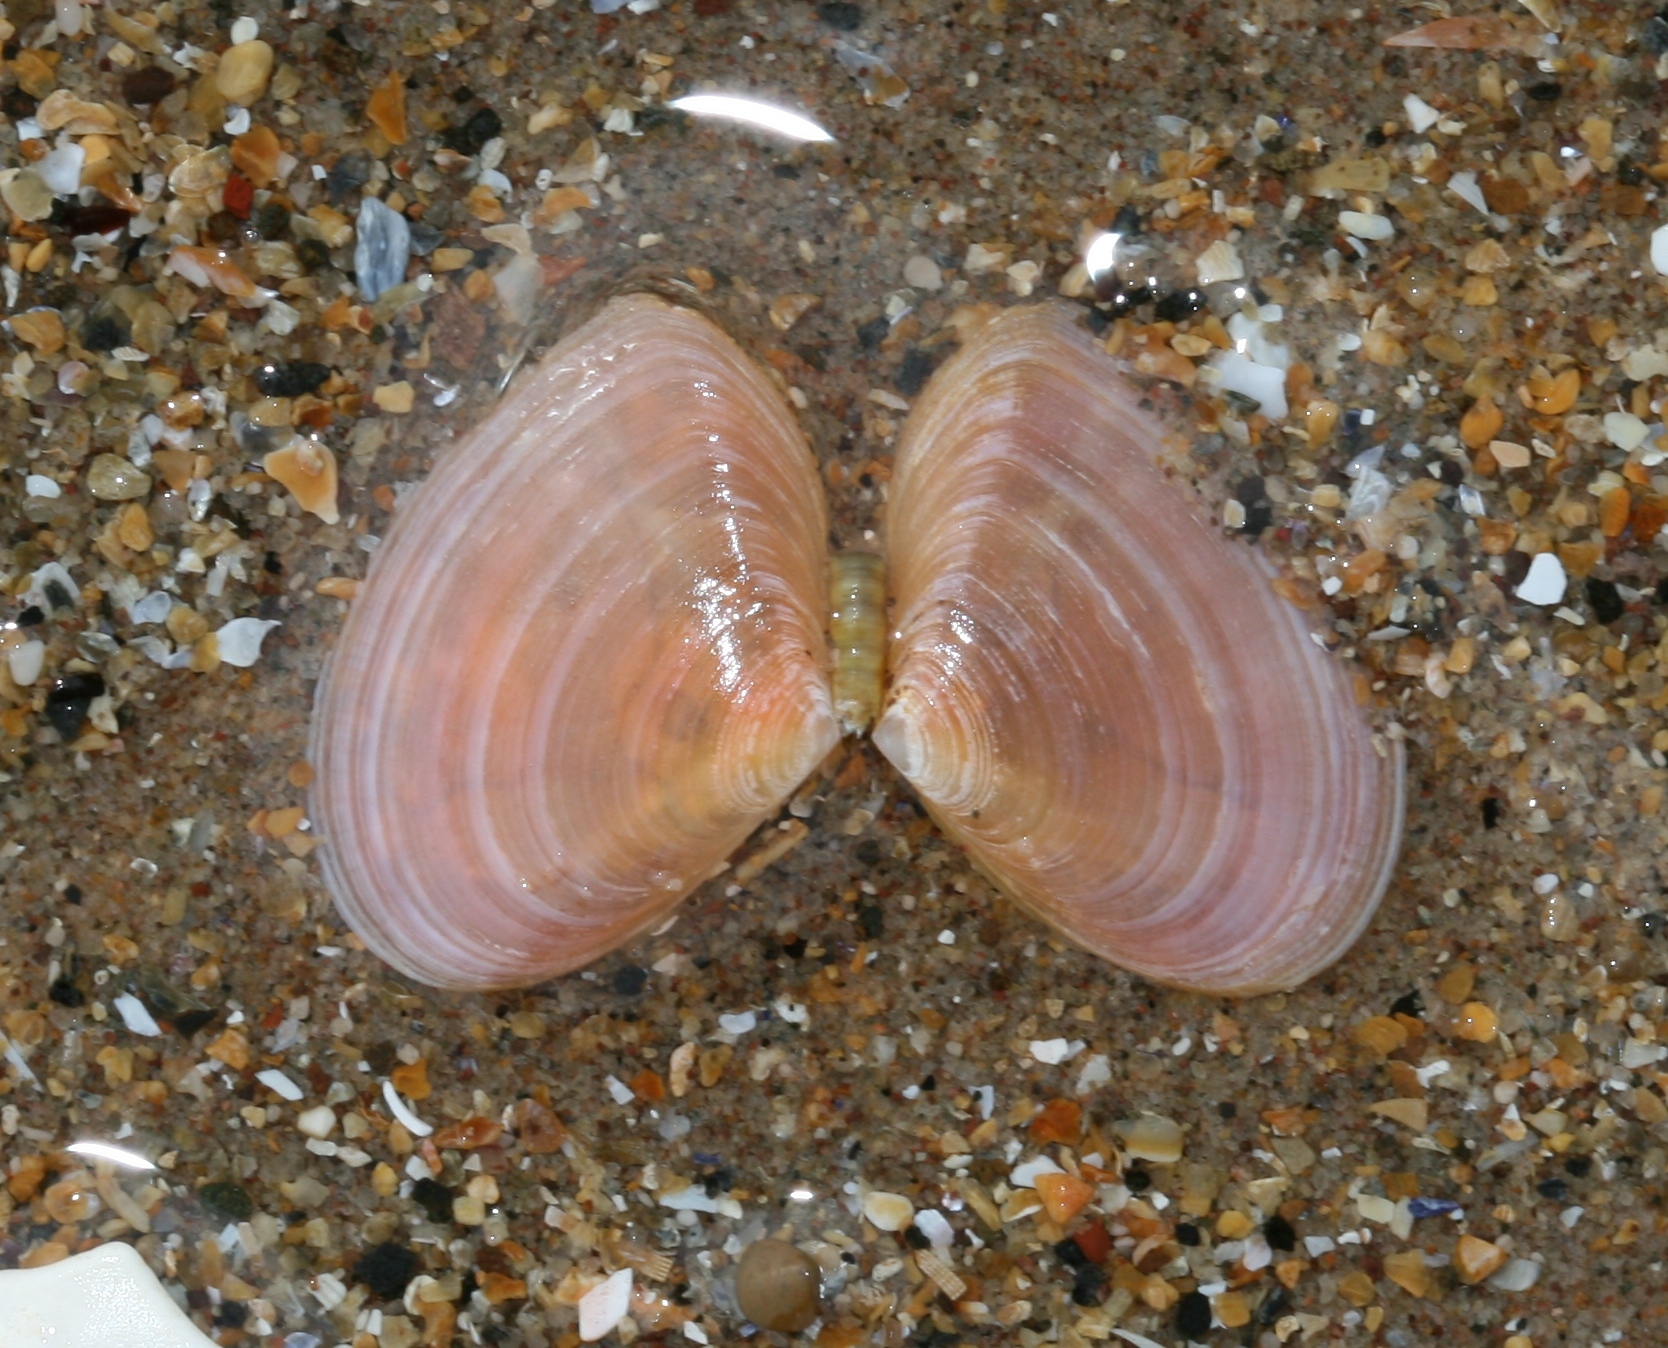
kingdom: Animalia
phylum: Mollusca
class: Bivalvia
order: Cardiida
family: Tellinidae
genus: Macomangulus
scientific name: Macomangulus tenuis
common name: Thin tellin
